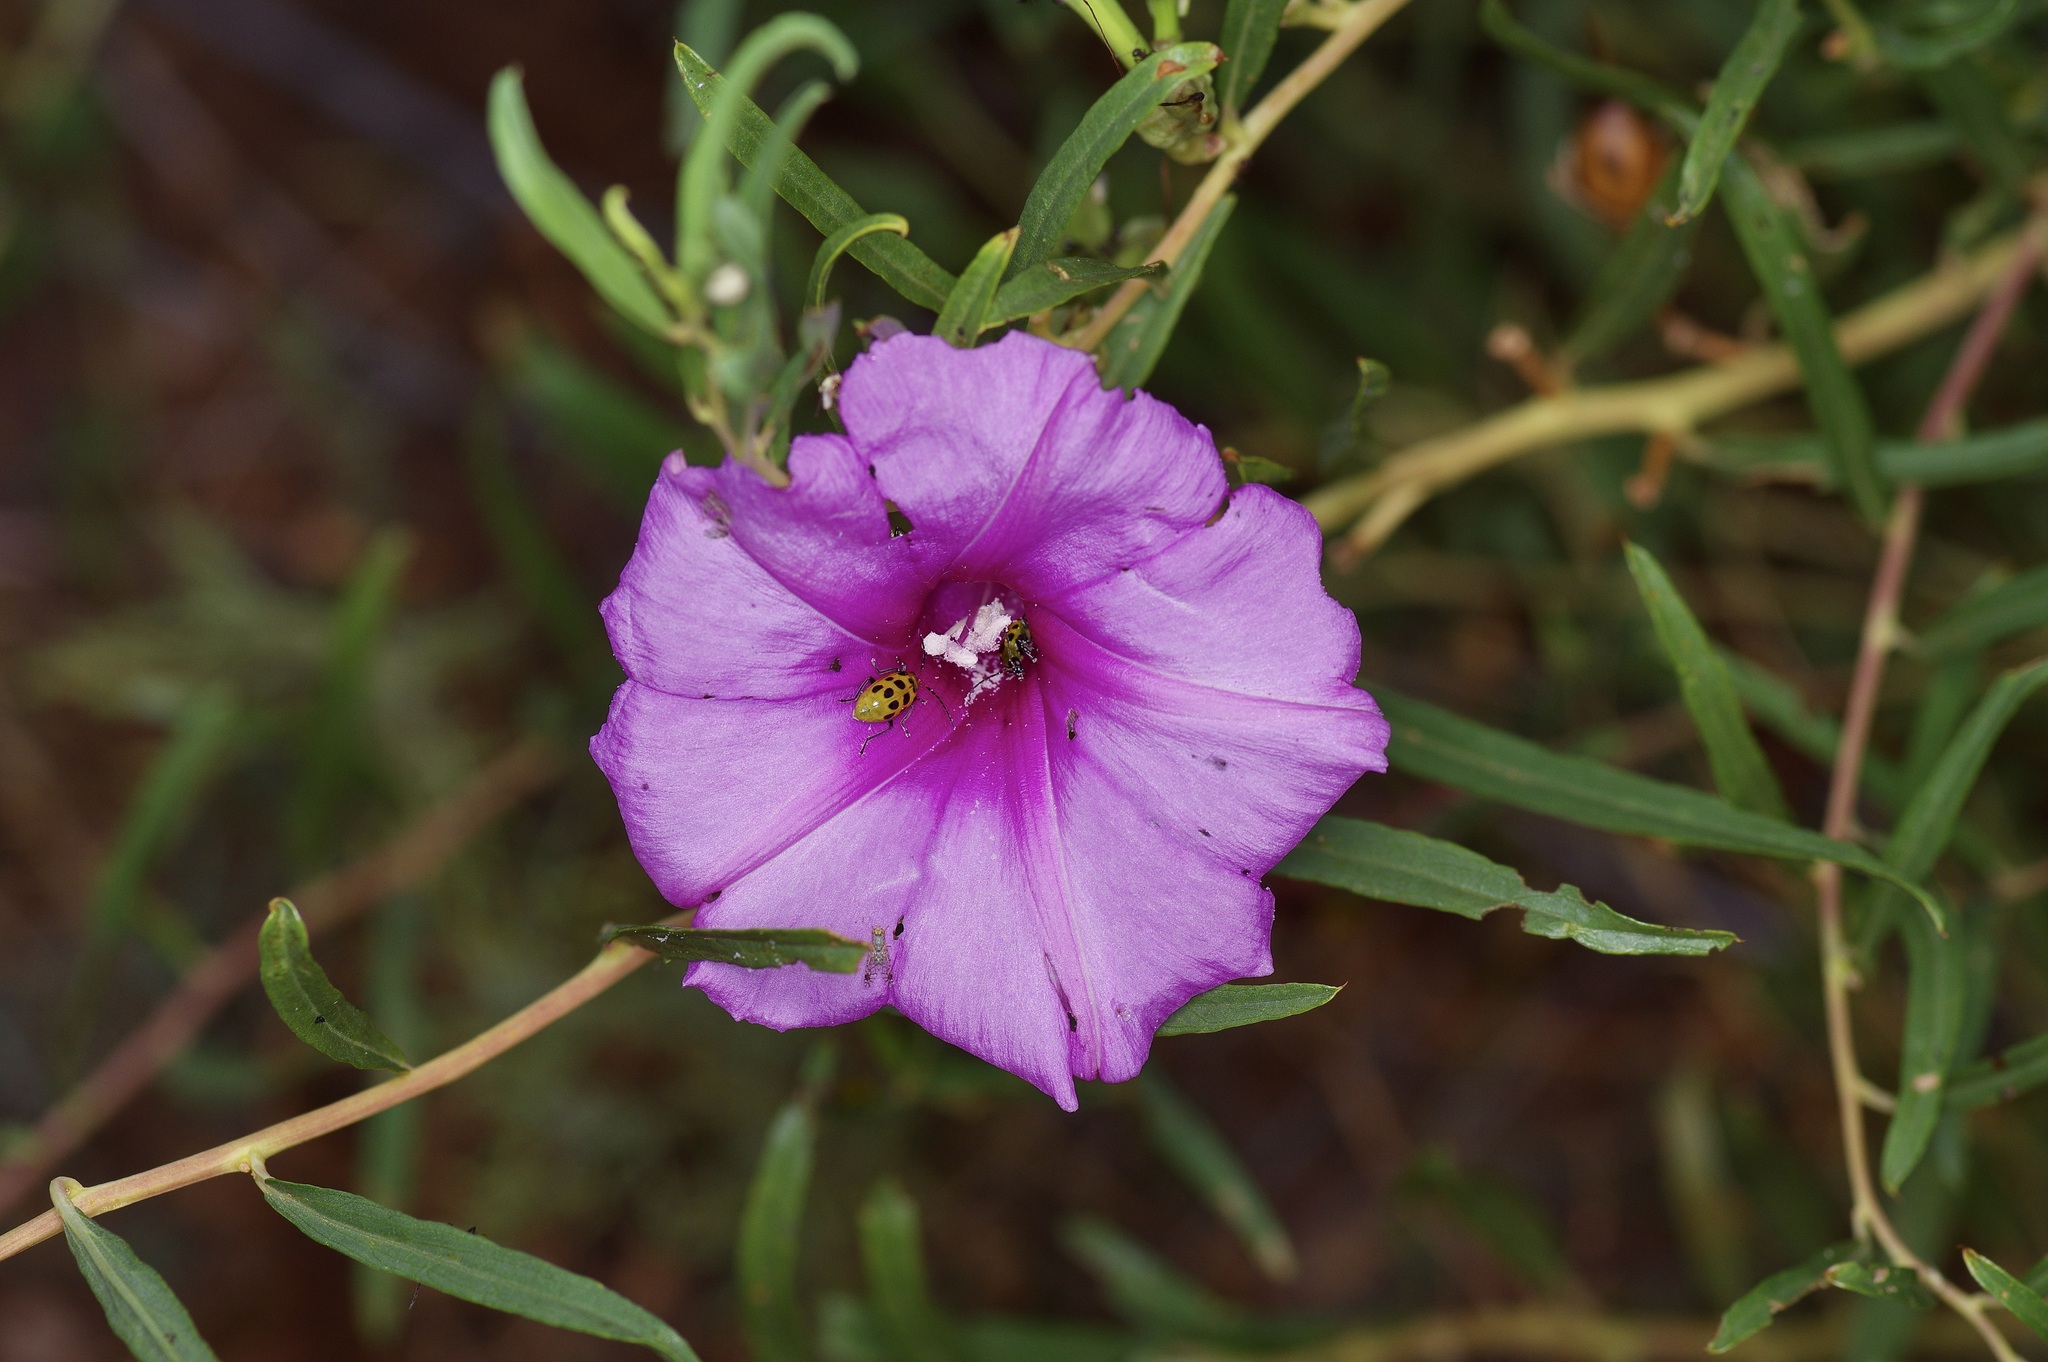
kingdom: Plantae
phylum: Tracheophyta
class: Magnoliopsida
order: Solanales
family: Convolvulaceae
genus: Ipomoea
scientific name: Ipomoea leptophylla
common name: Bush moonflower
